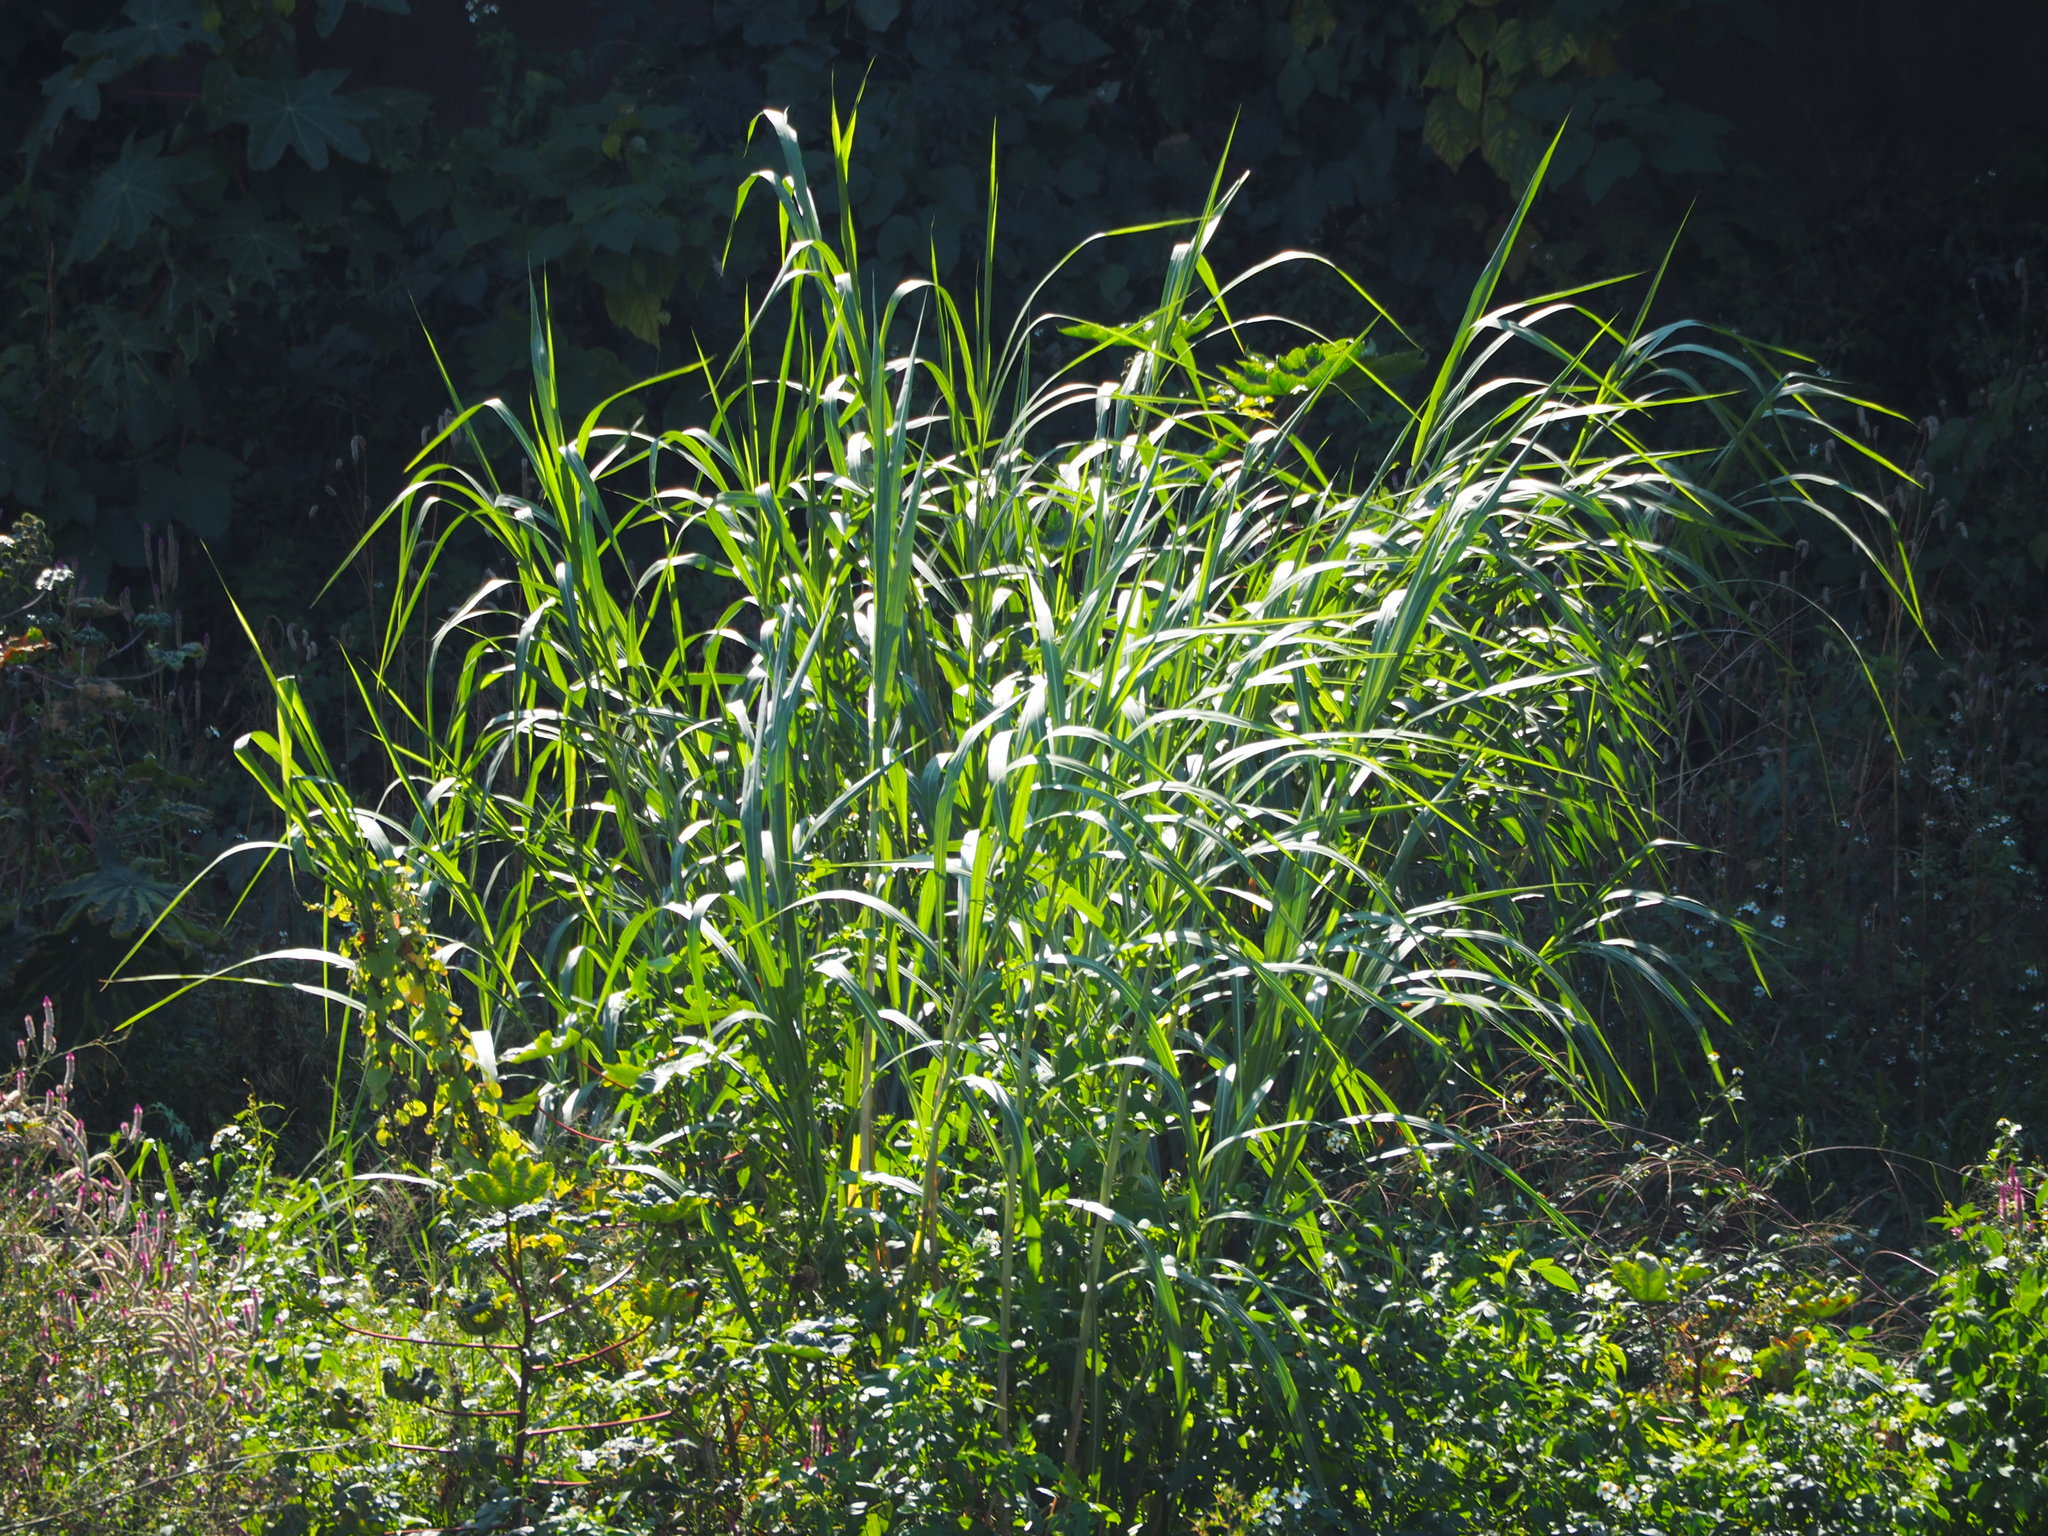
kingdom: Plantae
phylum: Tracheophyta
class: Liliopsida
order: Poales
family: Poaceae
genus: Cenchrus
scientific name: Cenchrus purpureus
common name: Elephant grass
